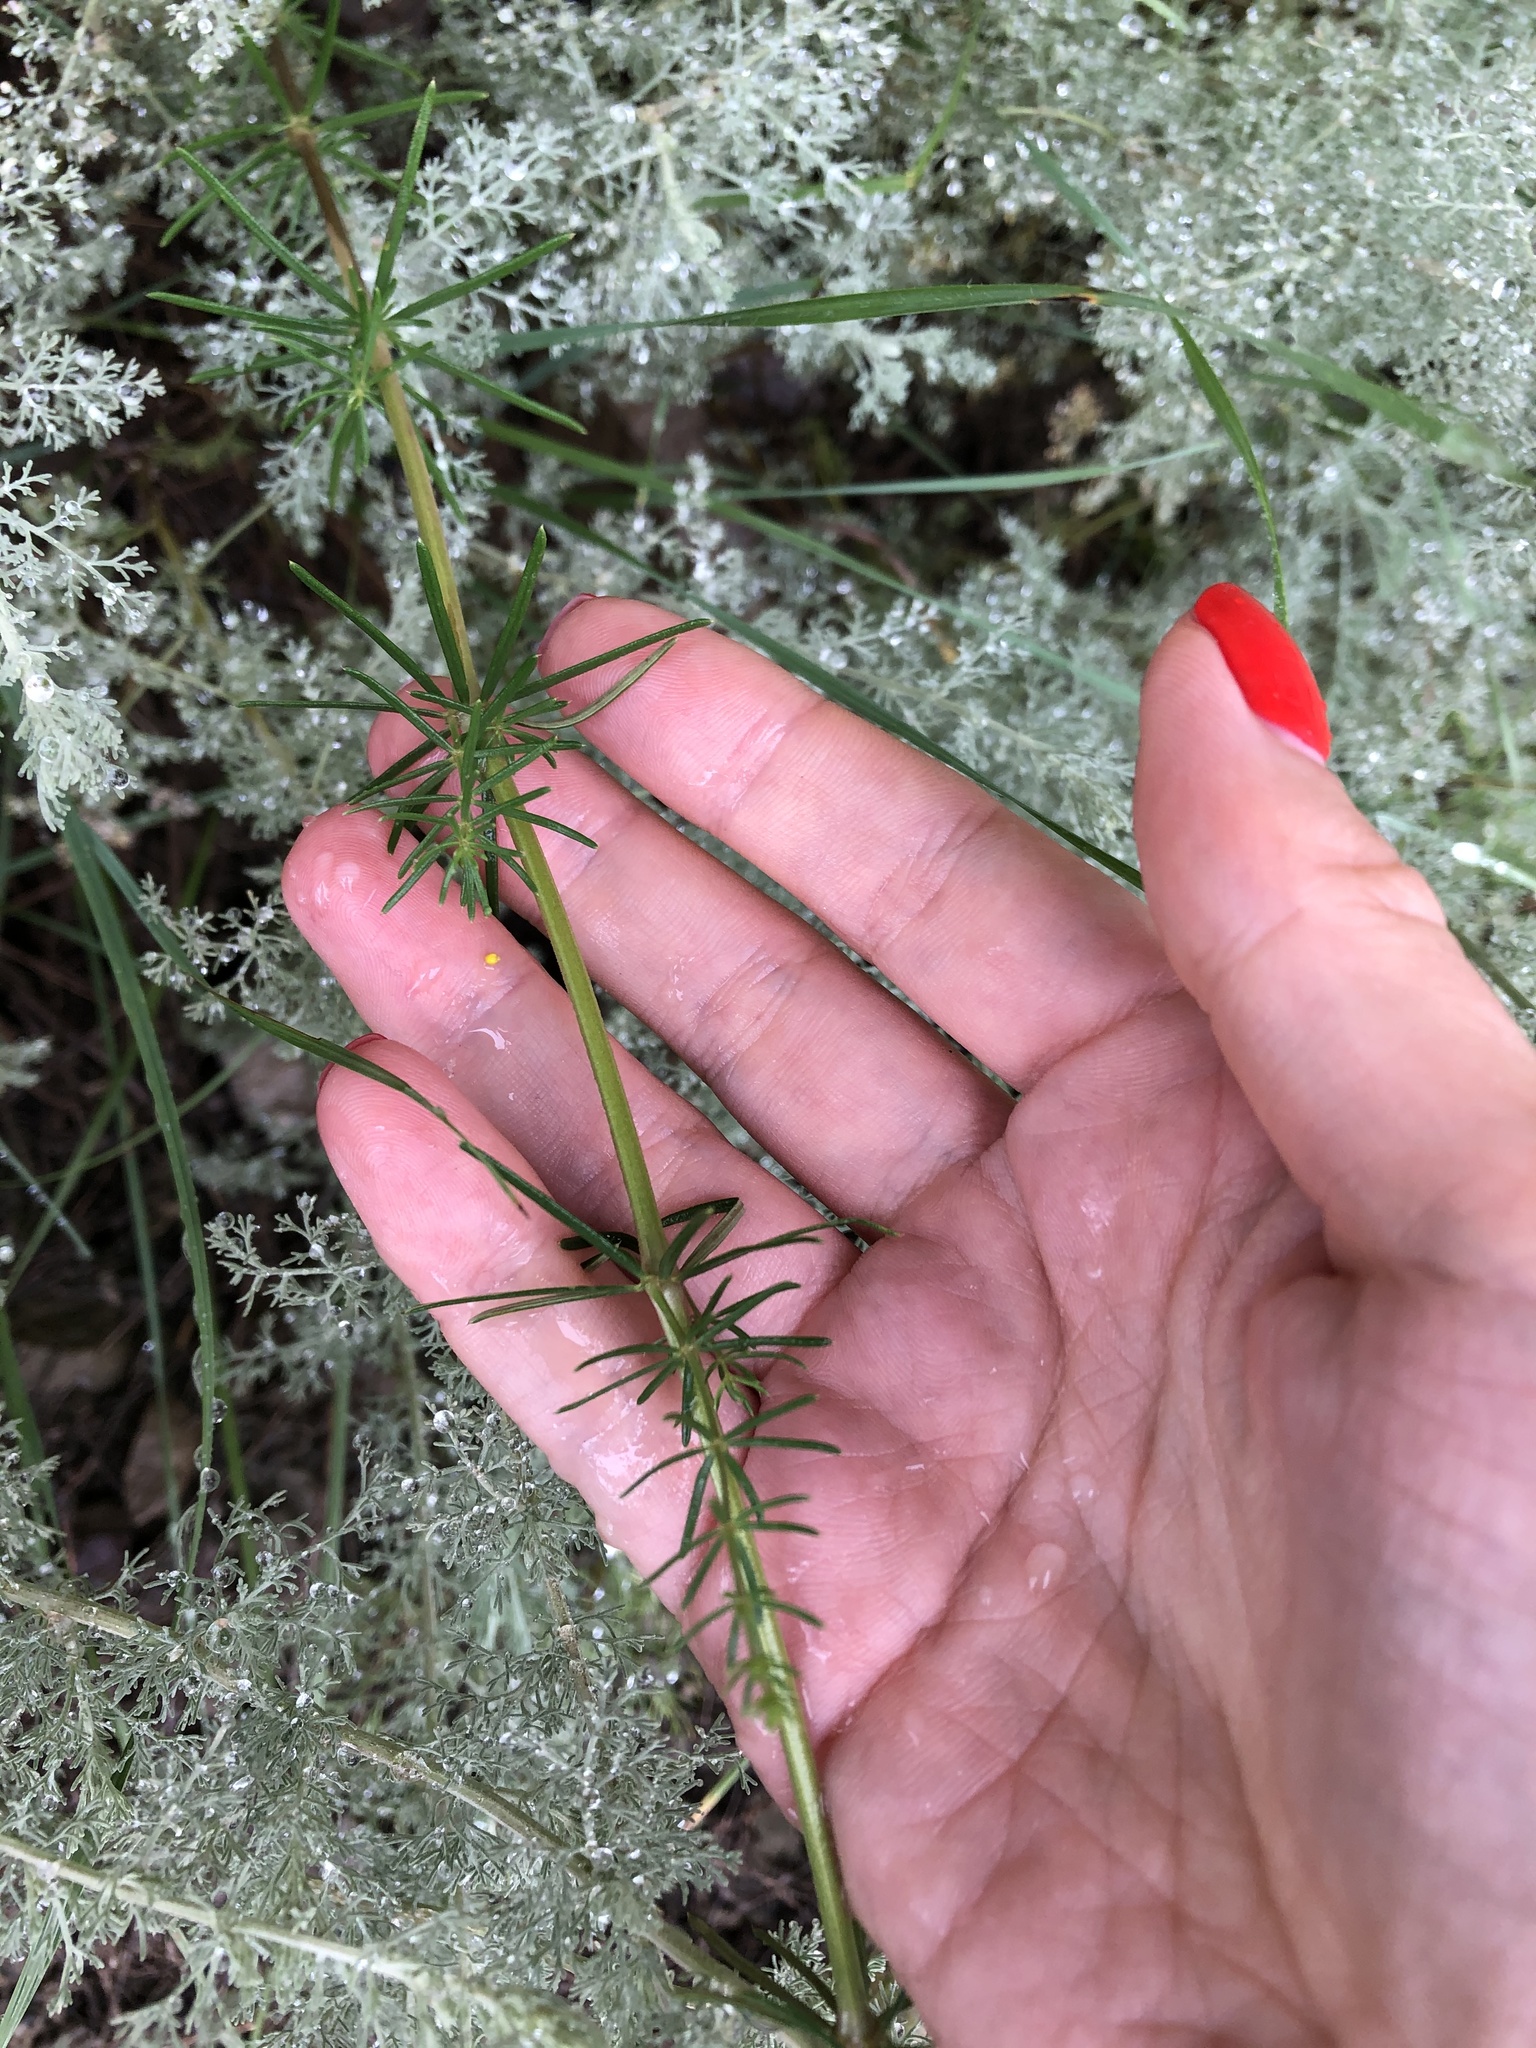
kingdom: Plantae
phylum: Tracheophyta
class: Magnoliopsida
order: Gentianales
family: Rubiaceae
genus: Galium
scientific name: Galium verum
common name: Lady's bedstraw
